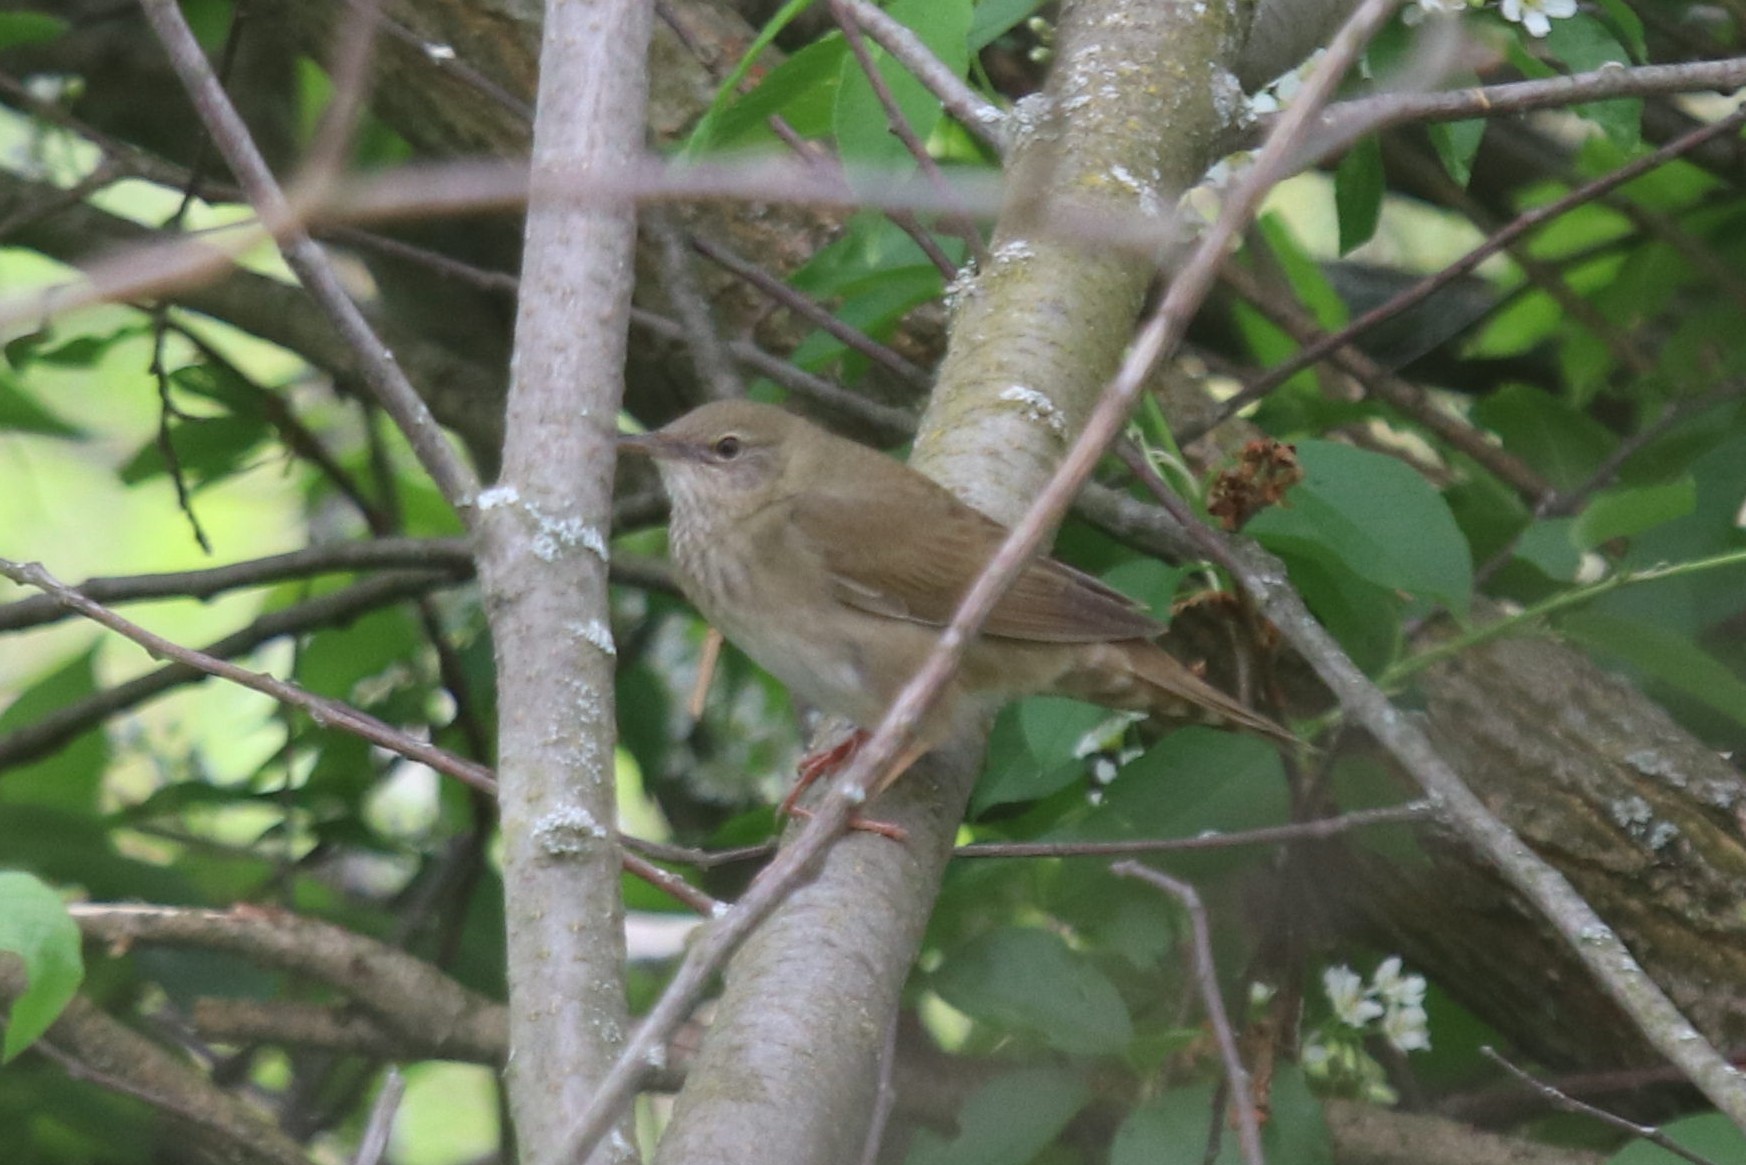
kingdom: Animalia
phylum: Chordata
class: Aves
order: Passeriformes
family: Locustellidae
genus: Locustella
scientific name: Locustella fluviatilis
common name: River warbler
